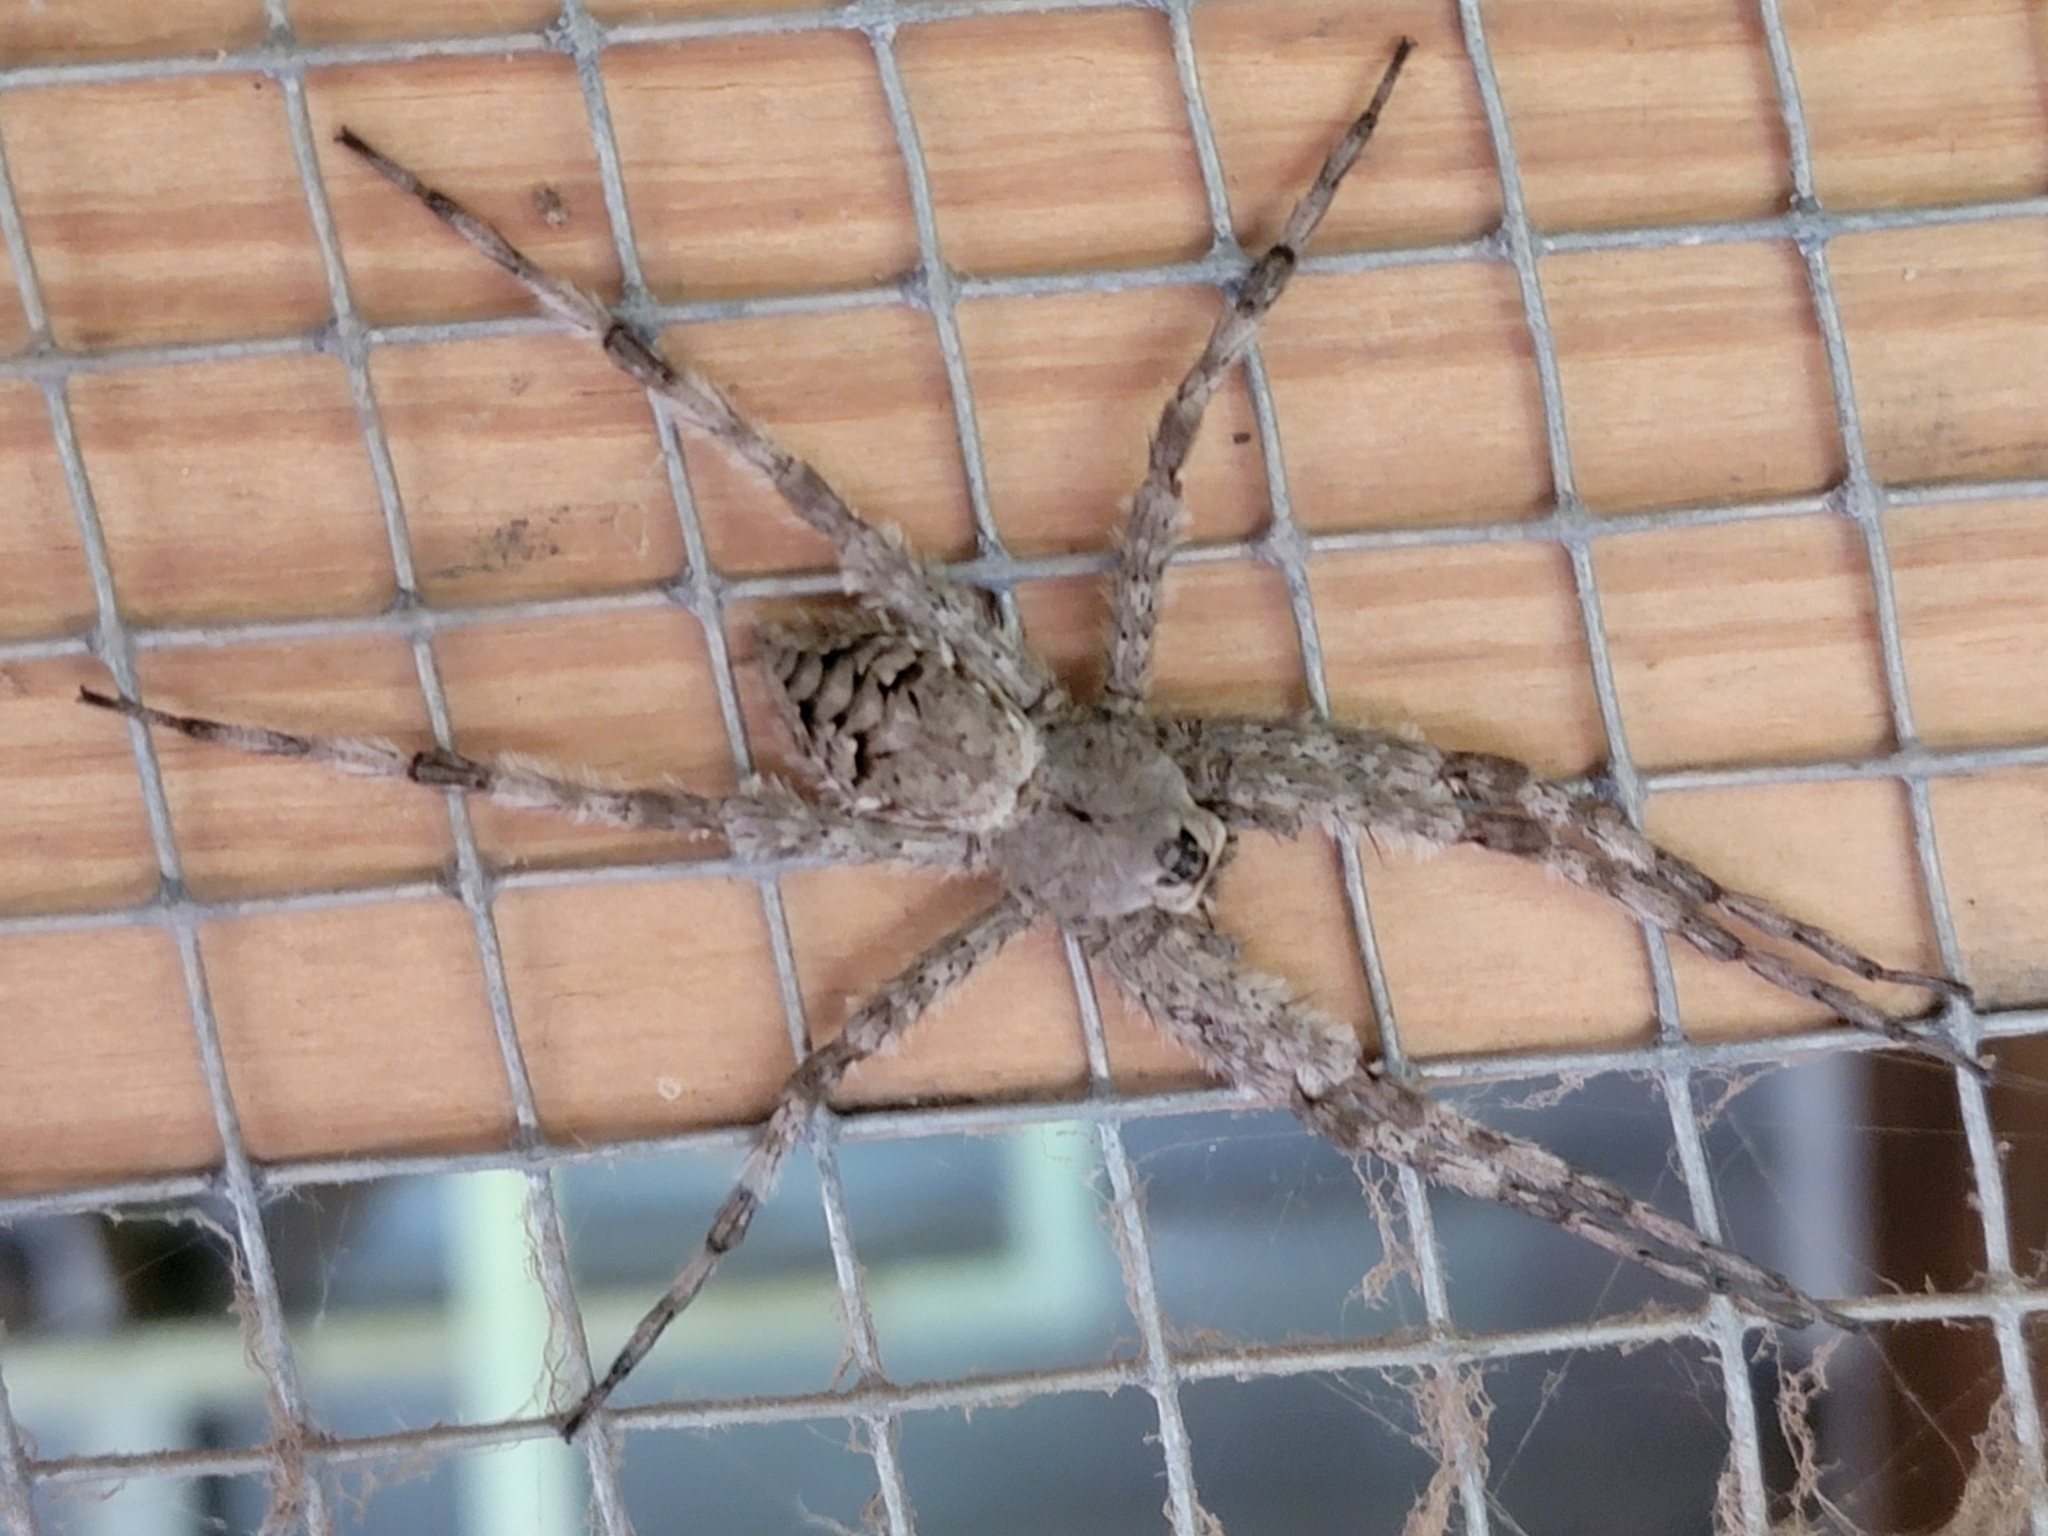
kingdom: Animalia
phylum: Arthropoda
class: Arachnida
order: Araneae
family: Pisauridae
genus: Dolomedes
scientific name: Dolomedes albineus
